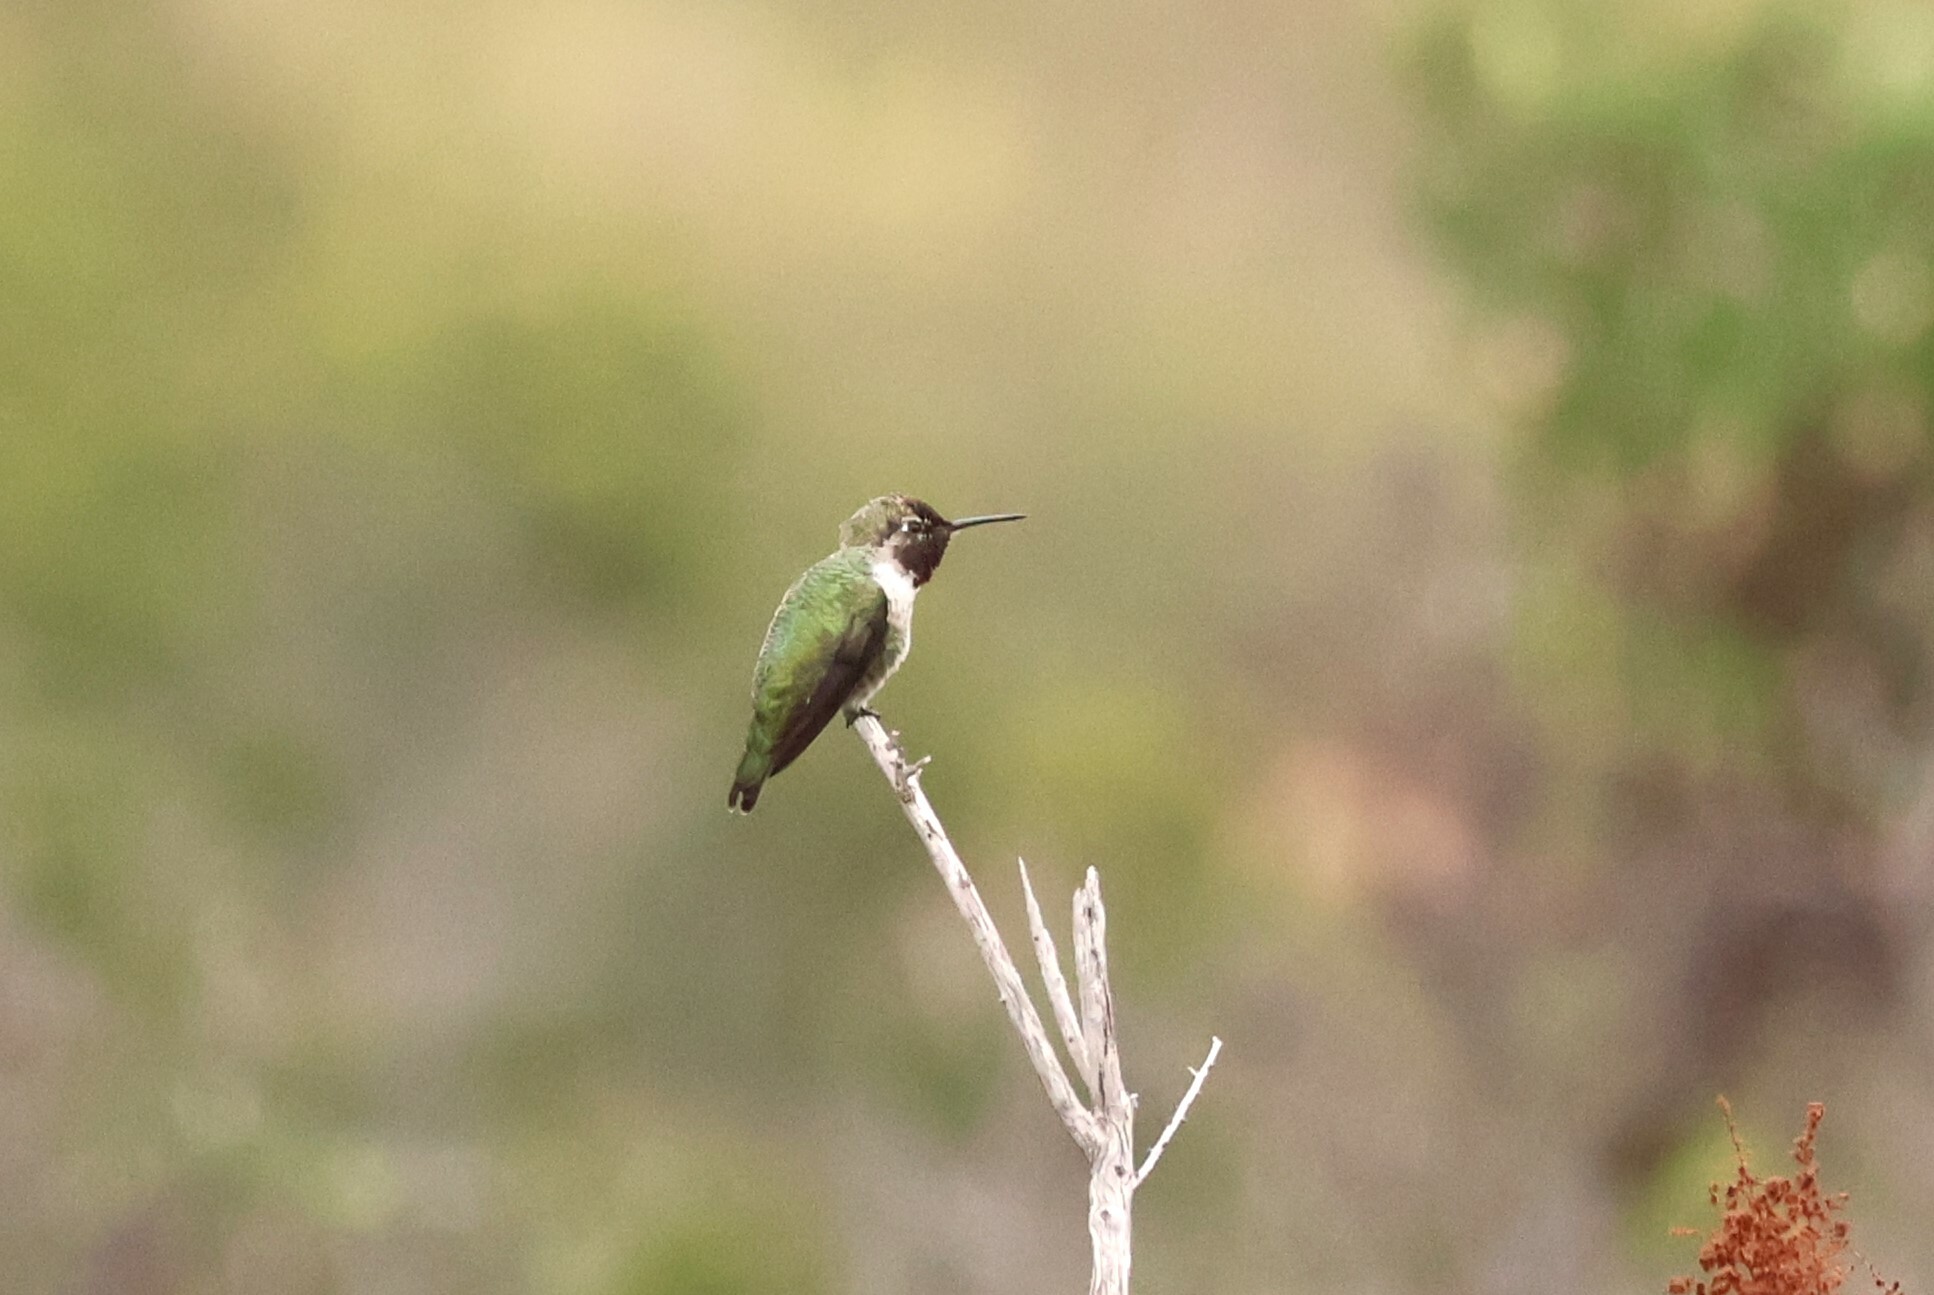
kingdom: Animalia
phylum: Chordata
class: Aves
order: Apodiformes
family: Trochilidae
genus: Calypte
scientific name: Calypte anna
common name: Anna's hummingbird
